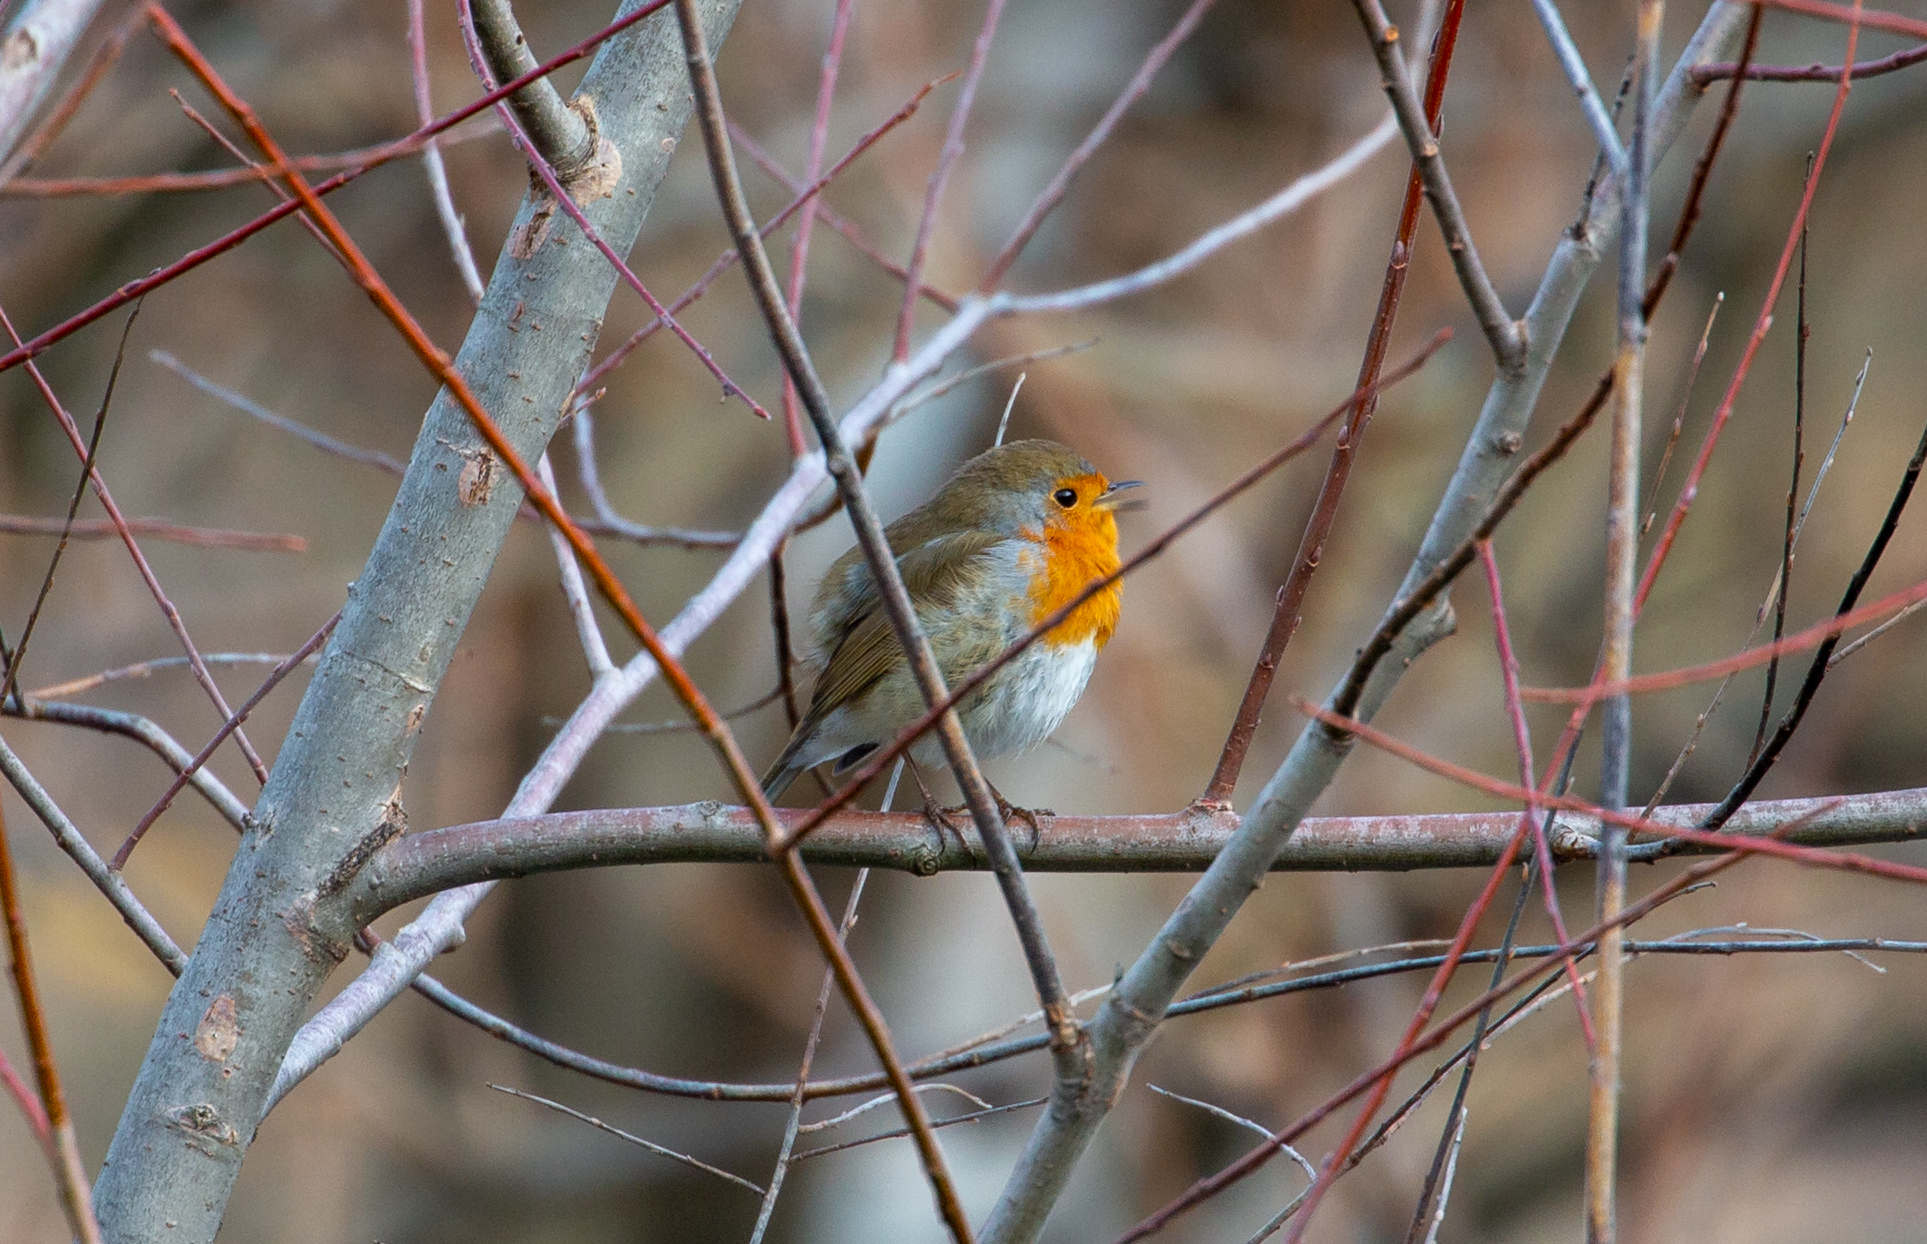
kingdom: Animalia
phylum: Chordata
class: Aves
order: Passeriformes
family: Muscicapidae
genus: Erithacus
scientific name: Erithacus rubecula
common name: European robin
